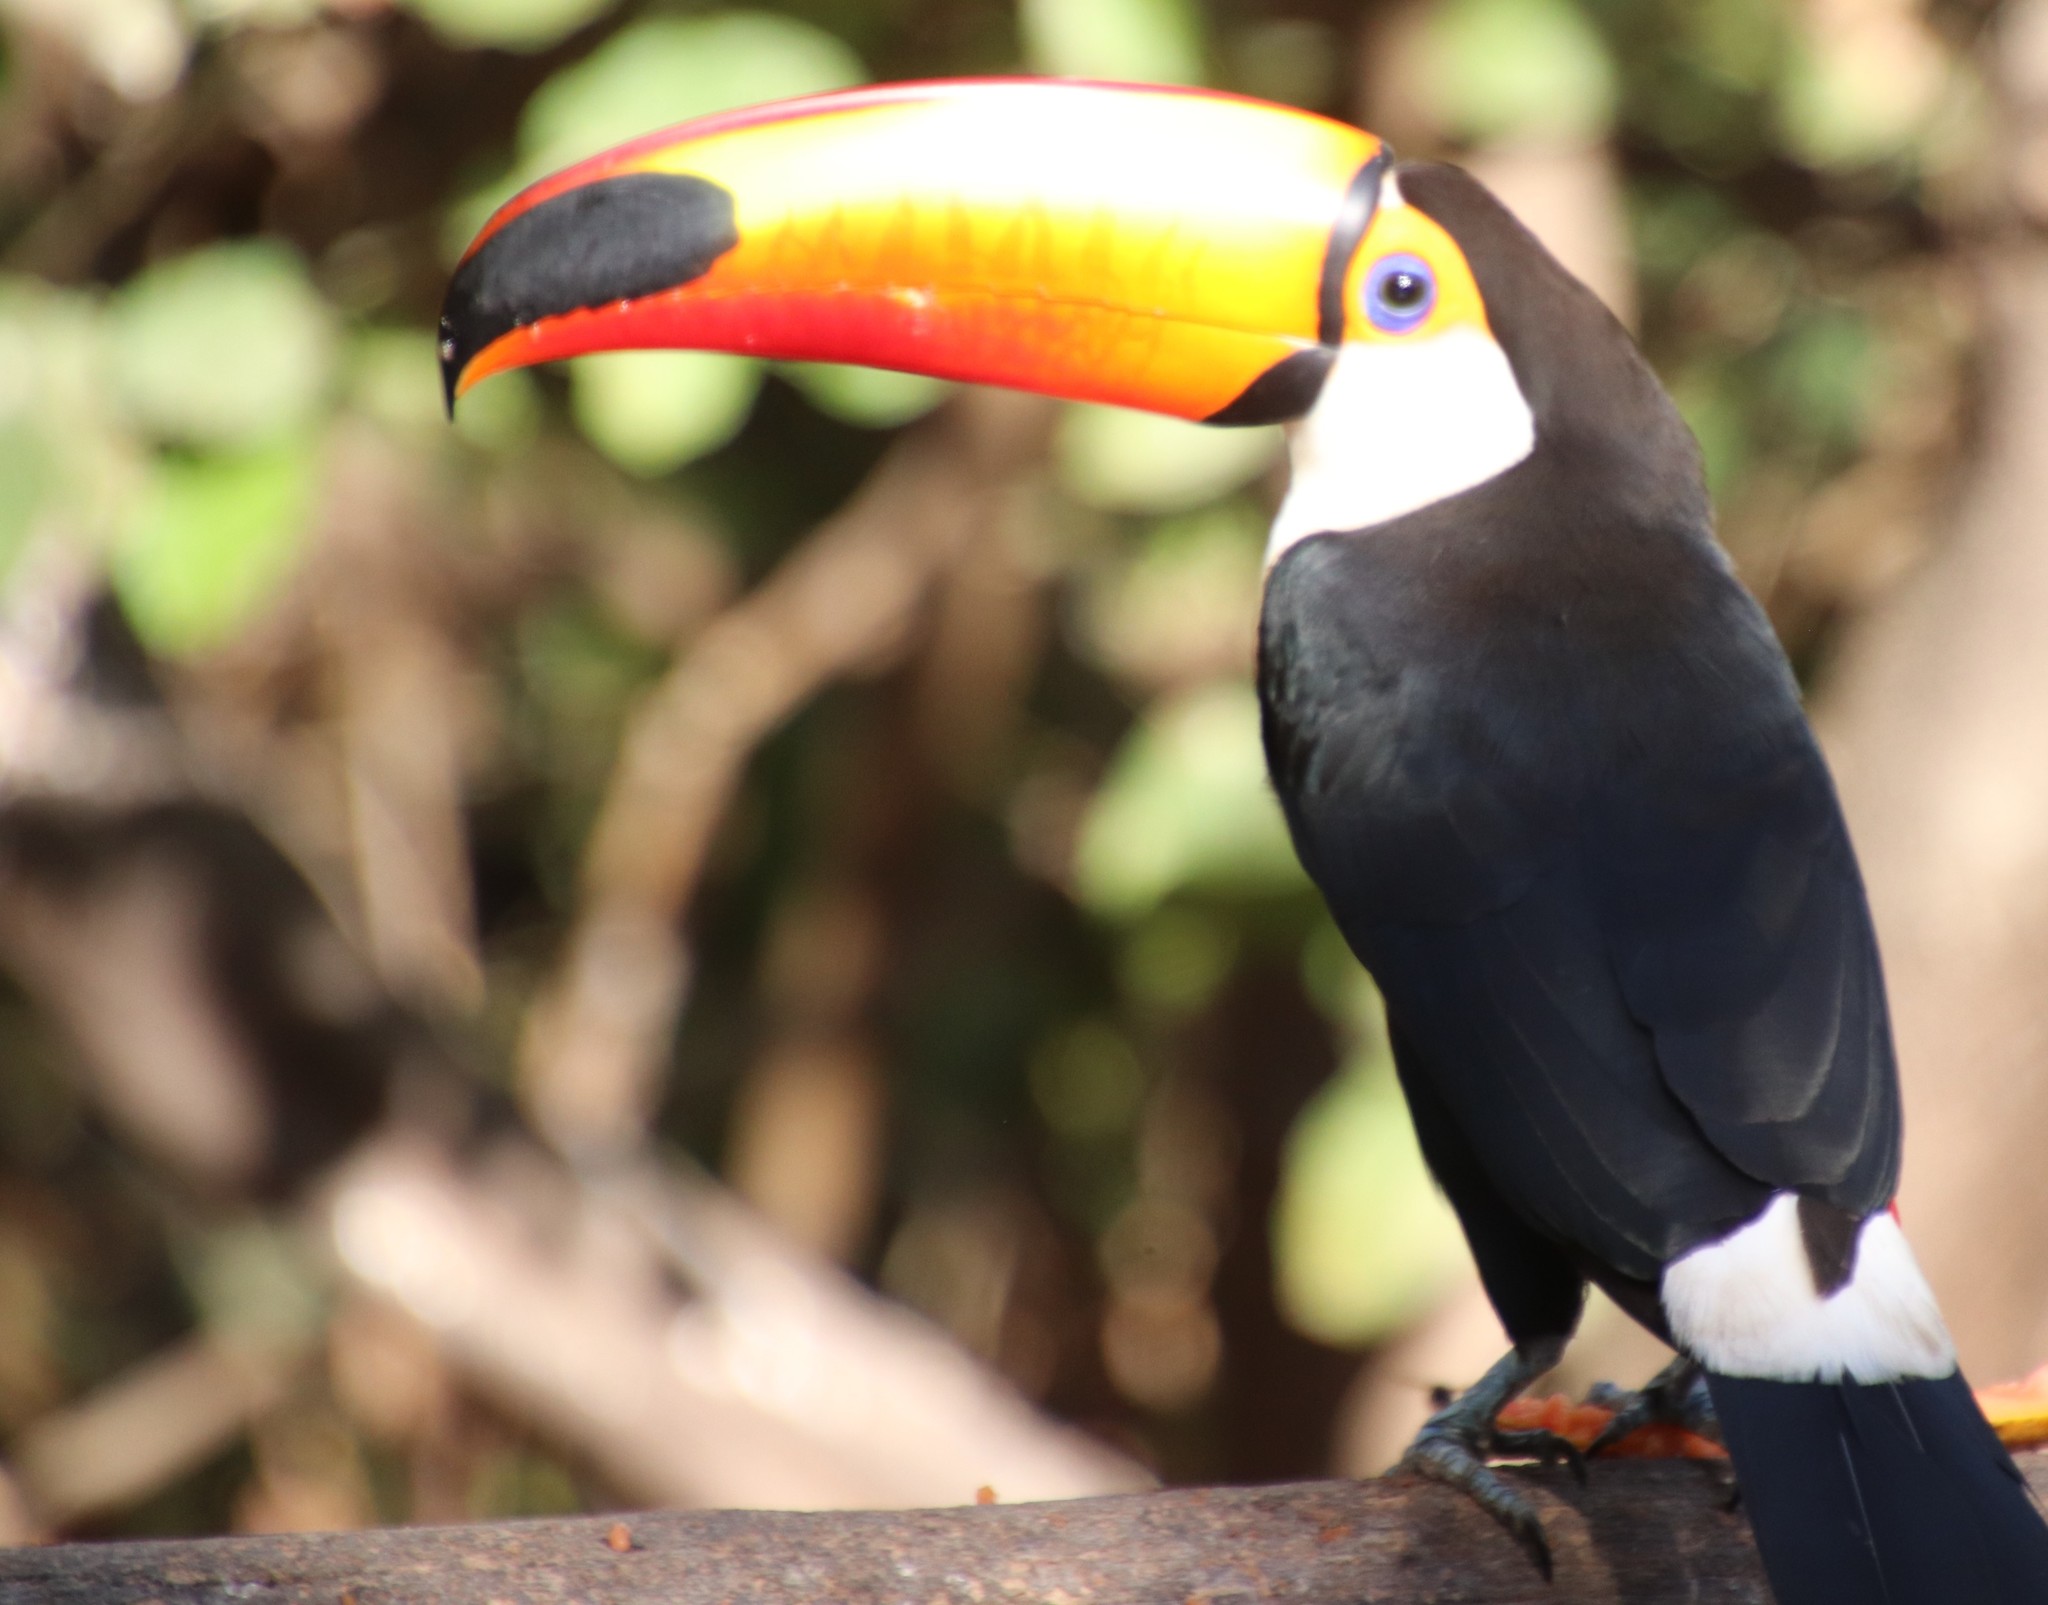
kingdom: Animalia
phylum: Chordata
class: Aves
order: Piciformes
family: Ramphastidae
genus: Ramphastos
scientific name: Ramphastos toco
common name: Toco toucan
